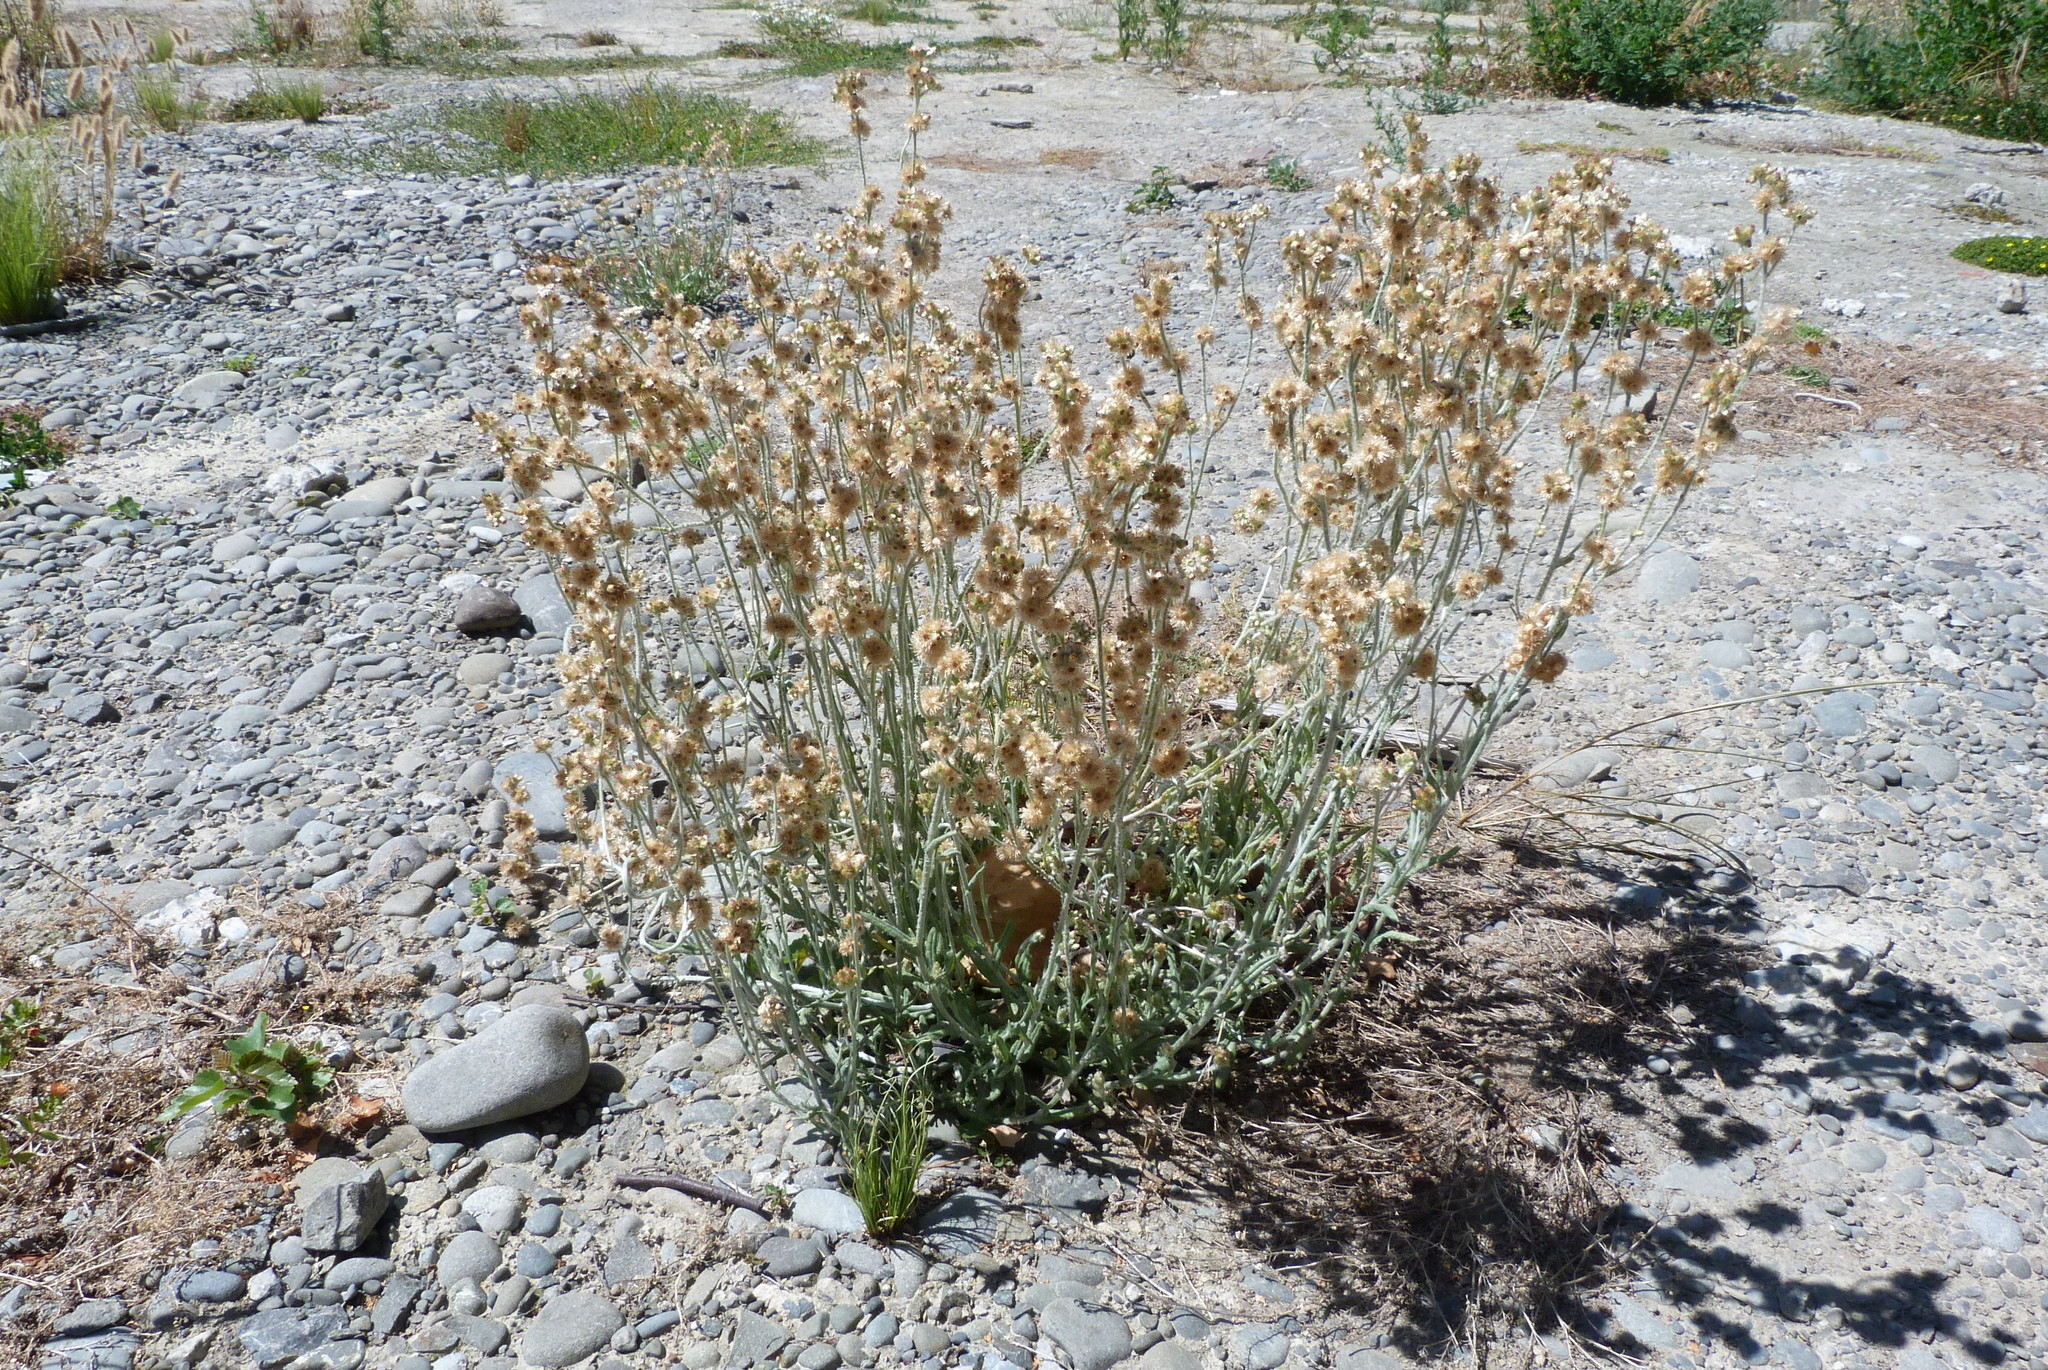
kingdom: Plantae
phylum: Tracheophyta
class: Magnoliopsida
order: Asterales
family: Asteraceae
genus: Helichrysum
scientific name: Helichrysum luteoalbum
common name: Daisy
